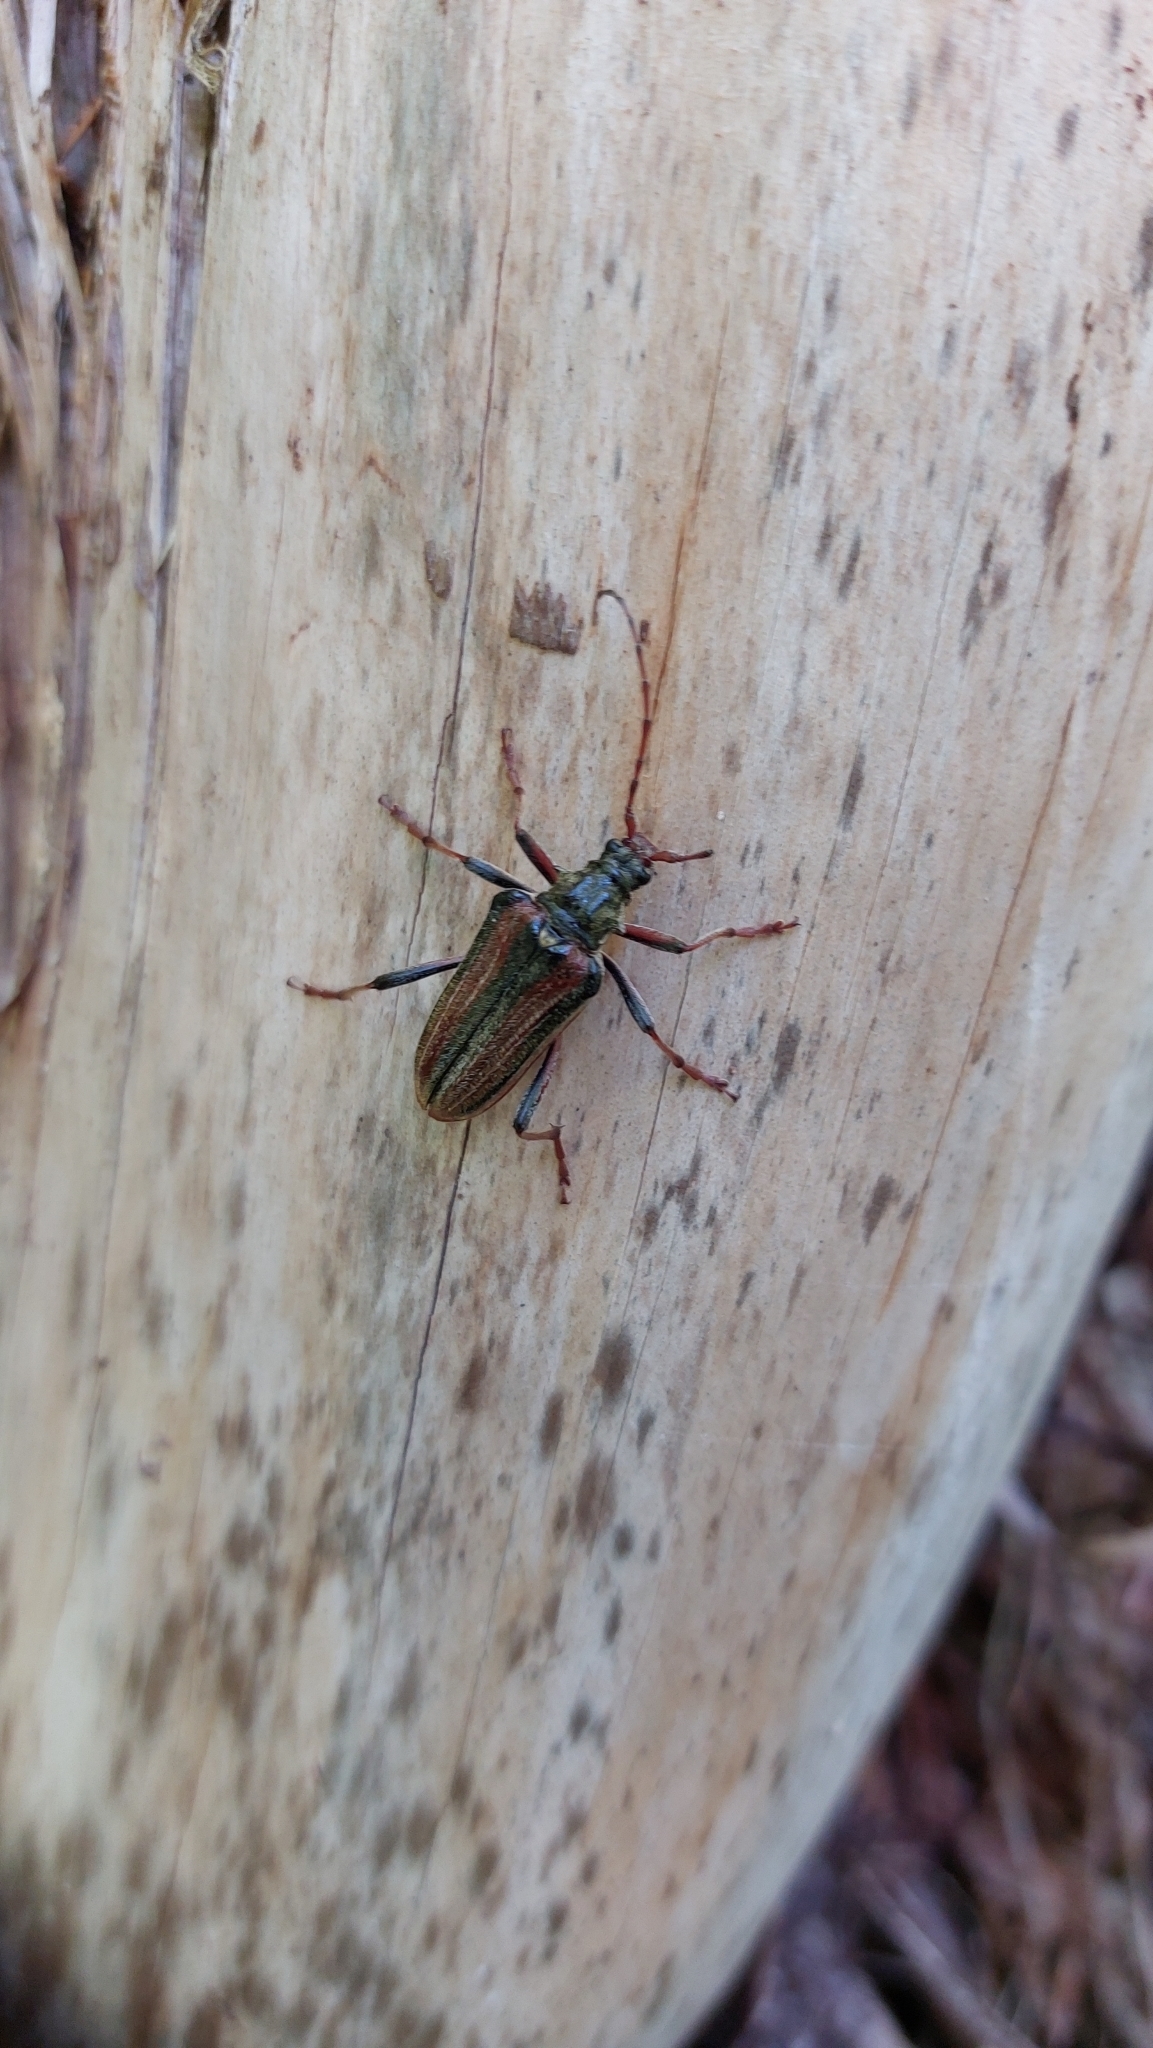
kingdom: Animalia
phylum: Arthropoda
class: Insecta
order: Coleoptera
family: Cerambycidae
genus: Oxymirus
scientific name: Oxymirus cursor
